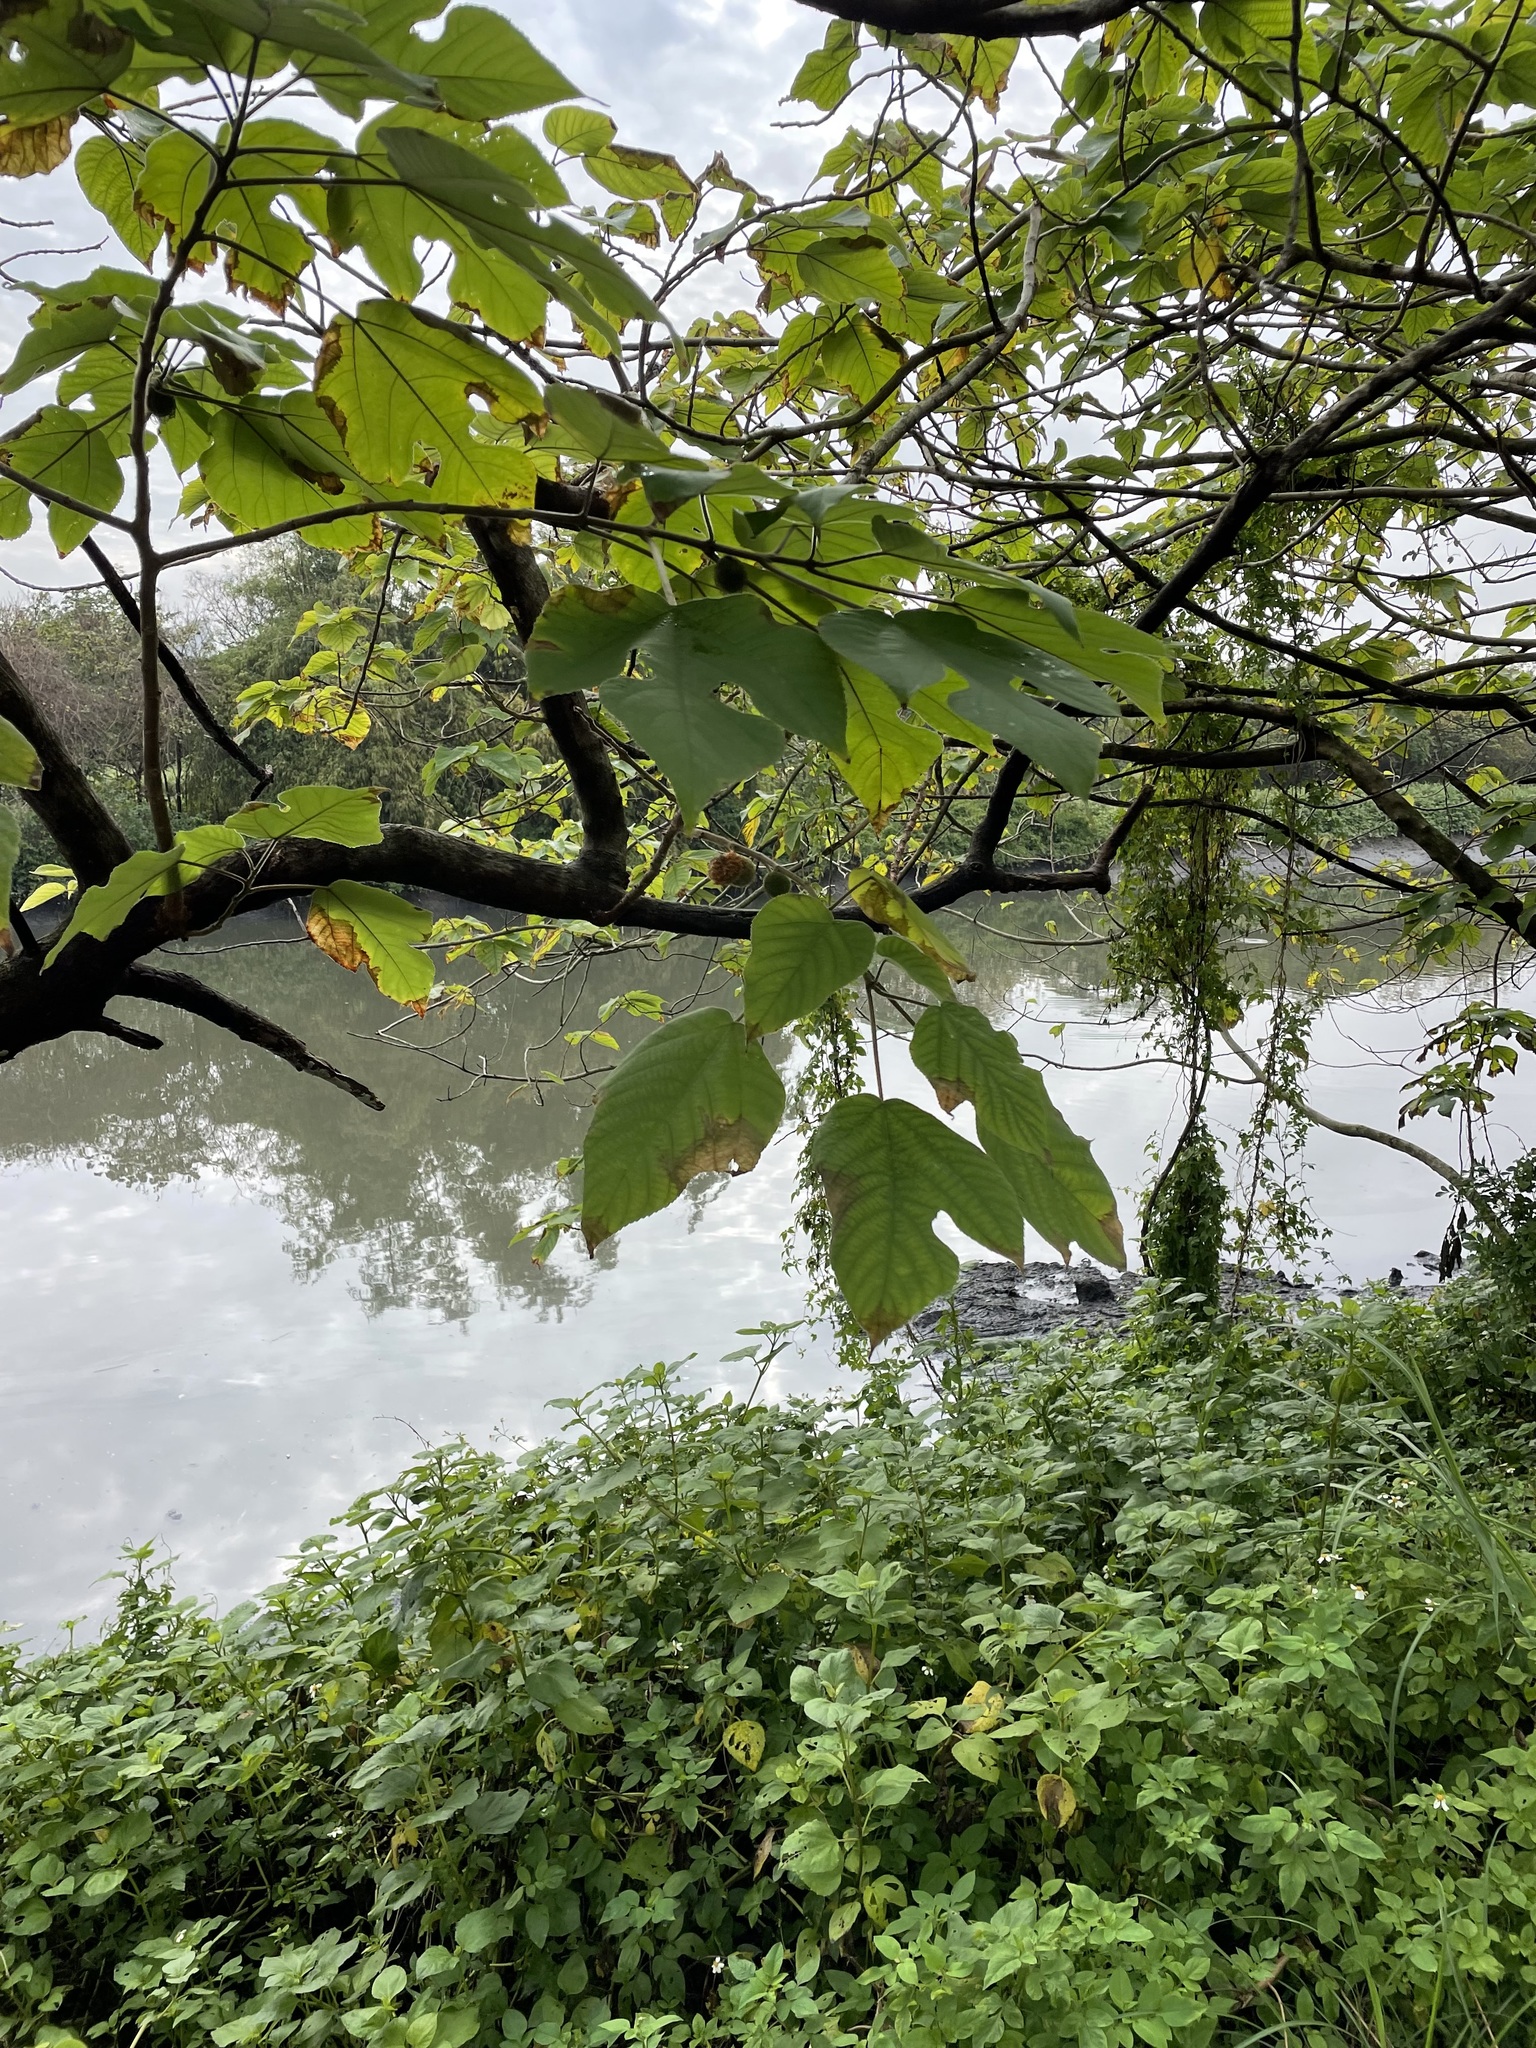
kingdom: Plantae
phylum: Tracheophyta
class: Magnoliopsida
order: Rosales
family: Moraceae
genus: Broussonetia
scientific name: Broussonetia papyrifera
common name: Paper mulberry
